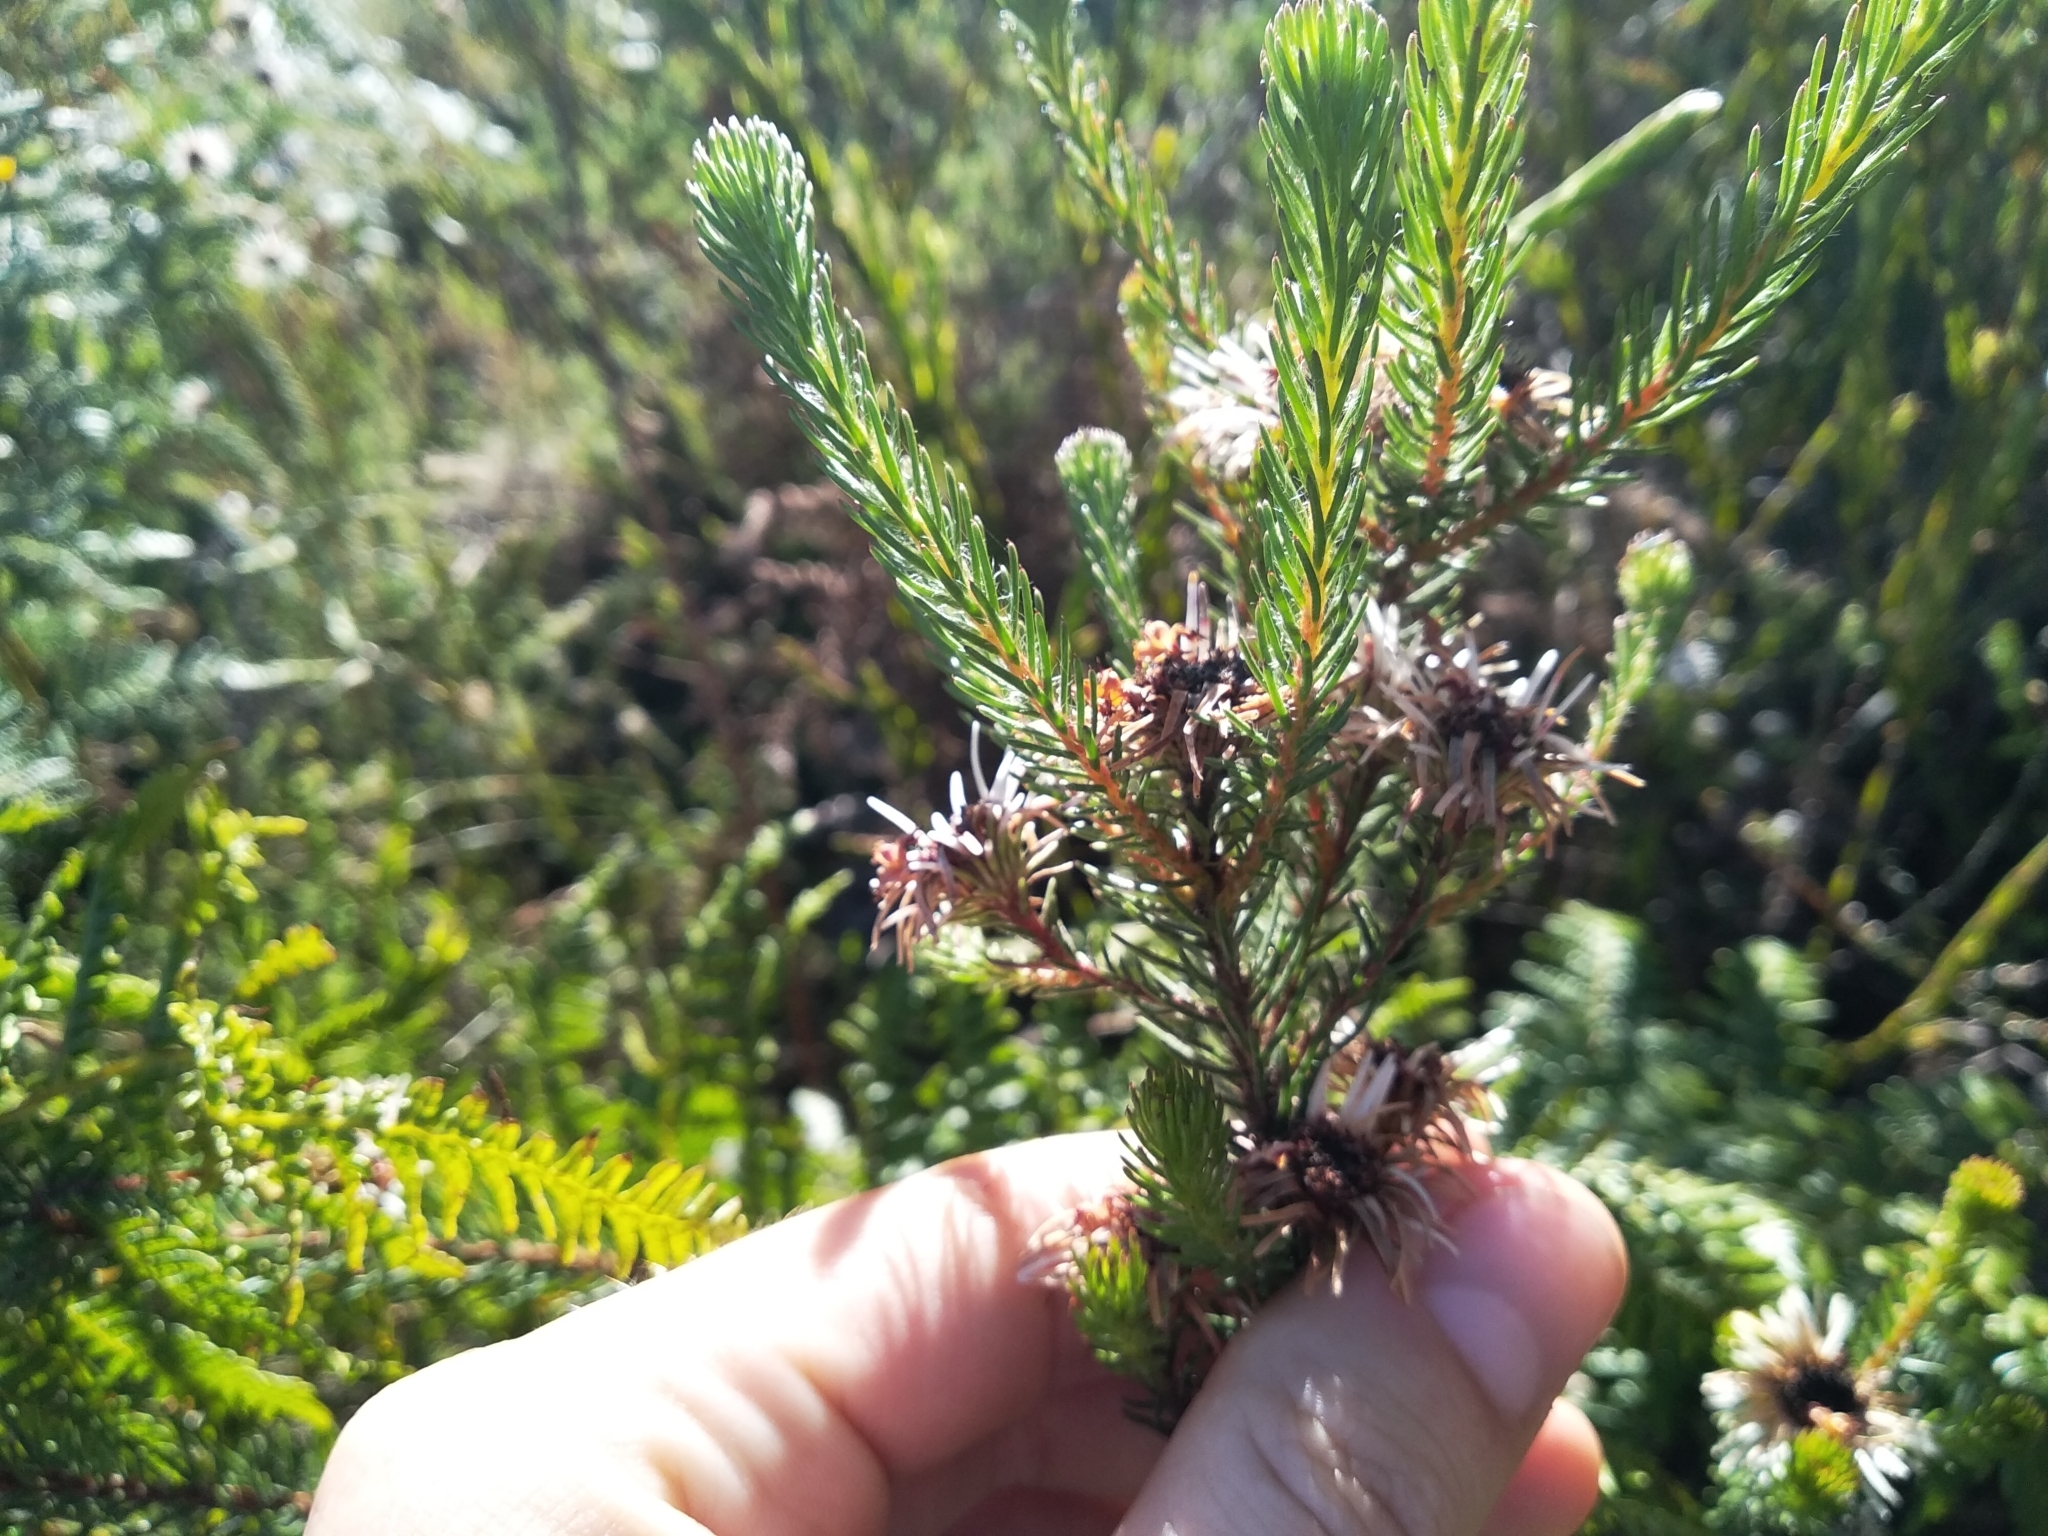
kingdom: Plantae
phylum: Tracheophyta
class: Magnoliopsida
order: Bruniales
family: Bruniaceae
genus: Staavia
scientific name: Staavia glutinosa
